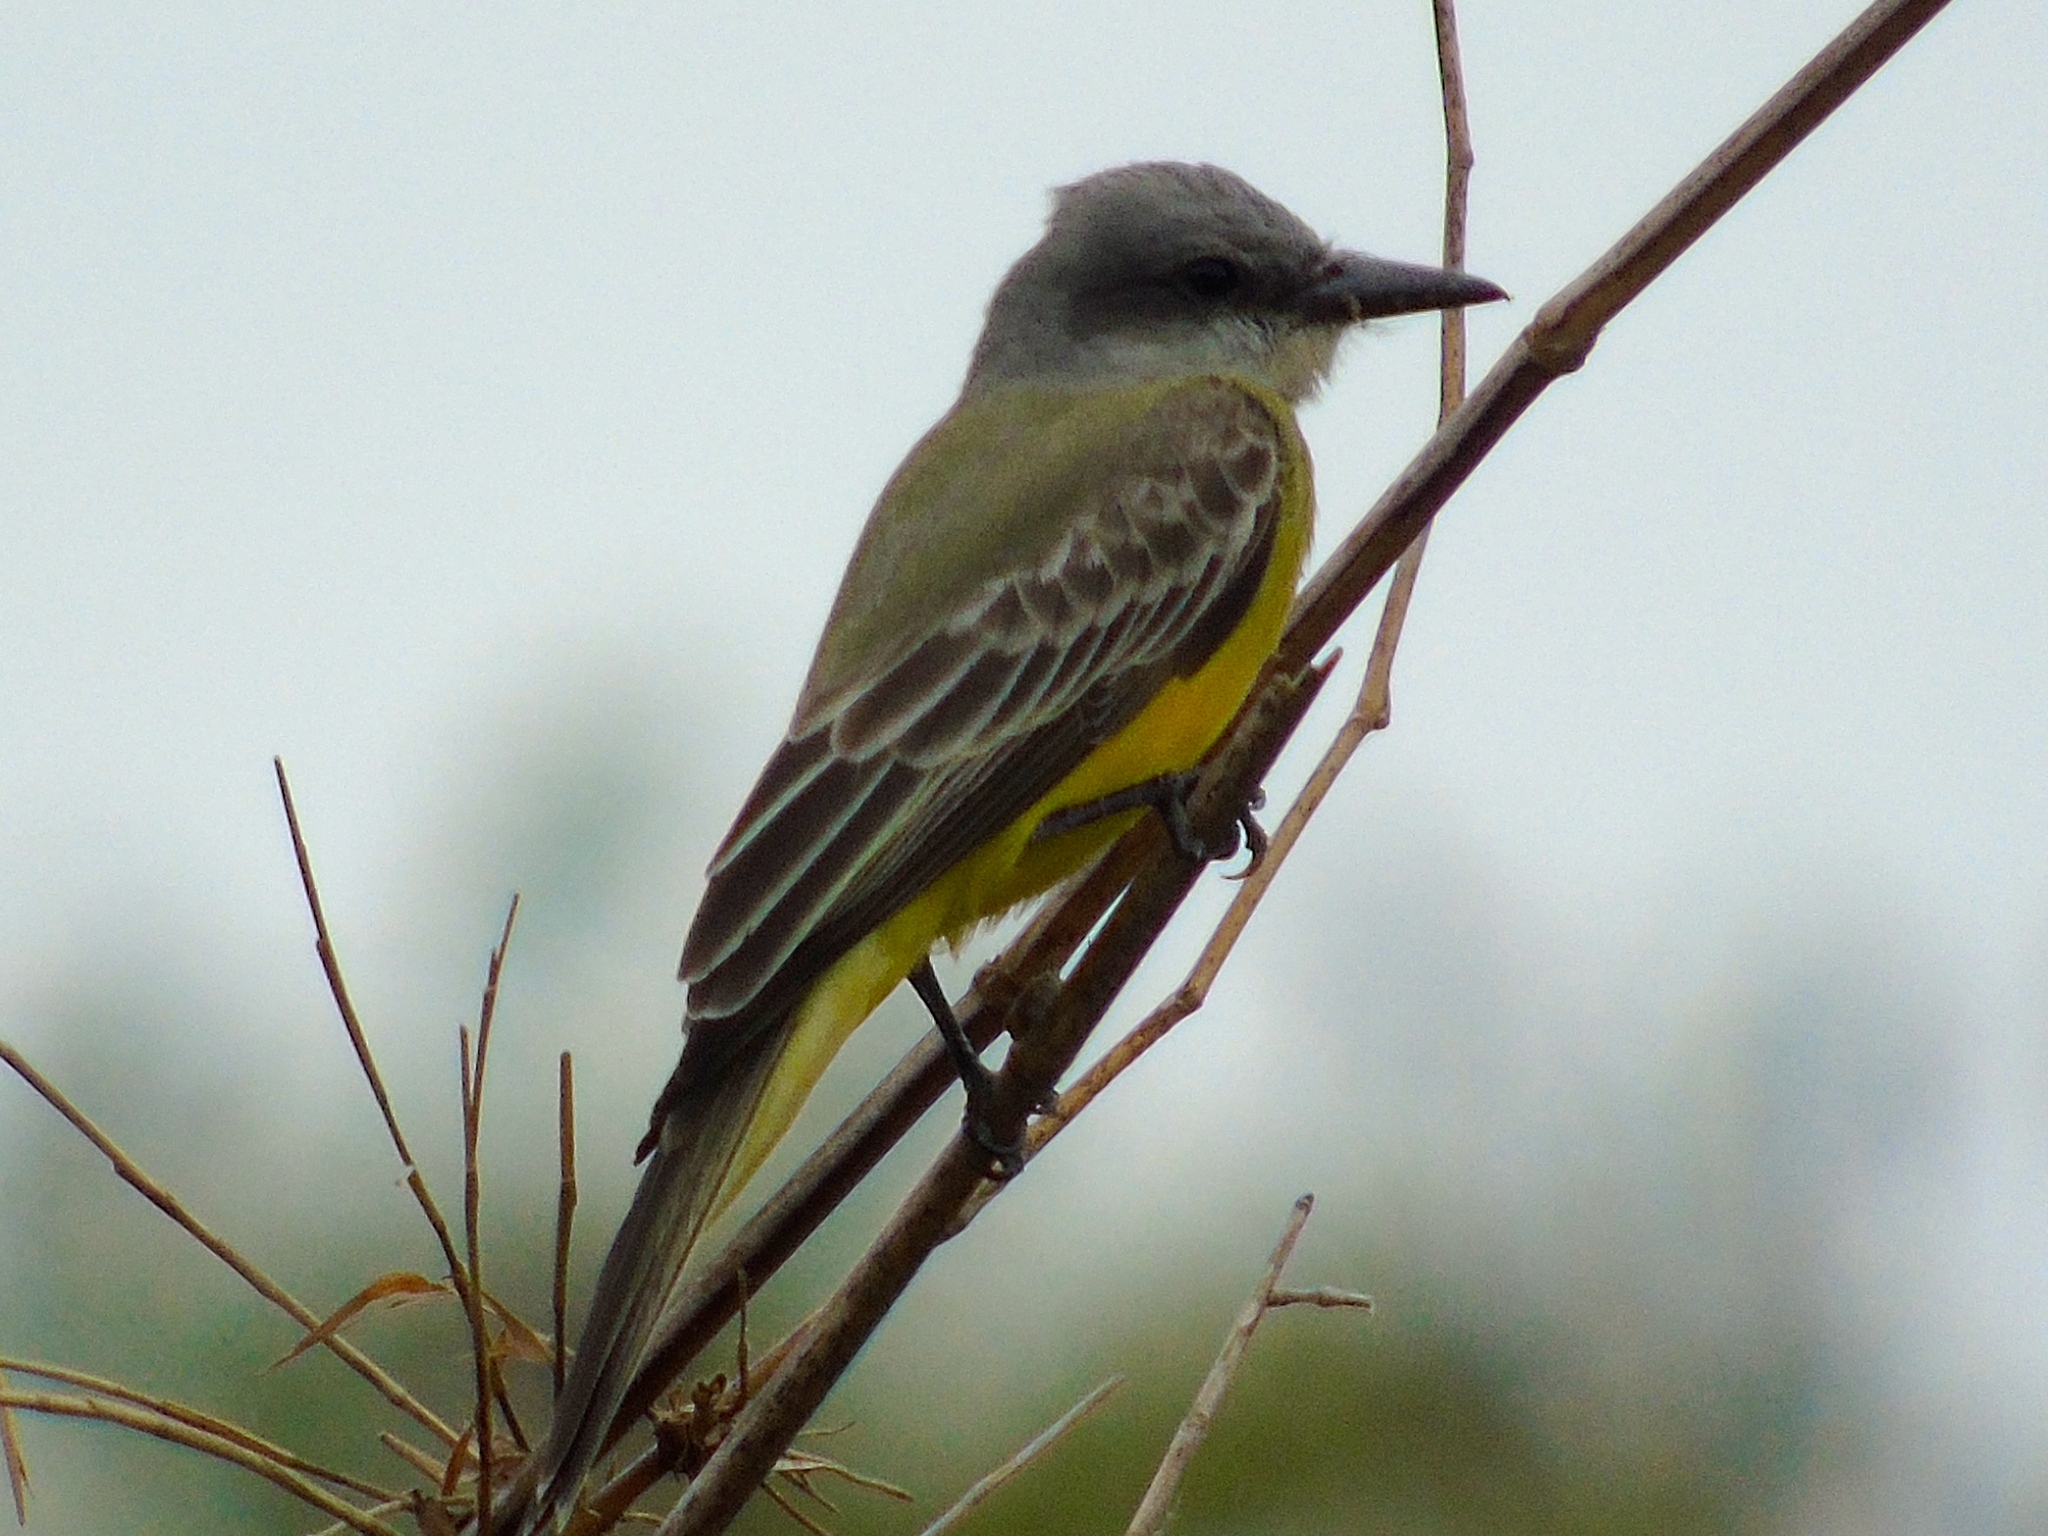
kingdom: Animalia
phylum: Chordata
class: Aves
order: Passeriformes
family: Tyrannidae
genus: Tyrannus
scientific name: Tyrannus melancholicus
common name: Tropical kingbird
